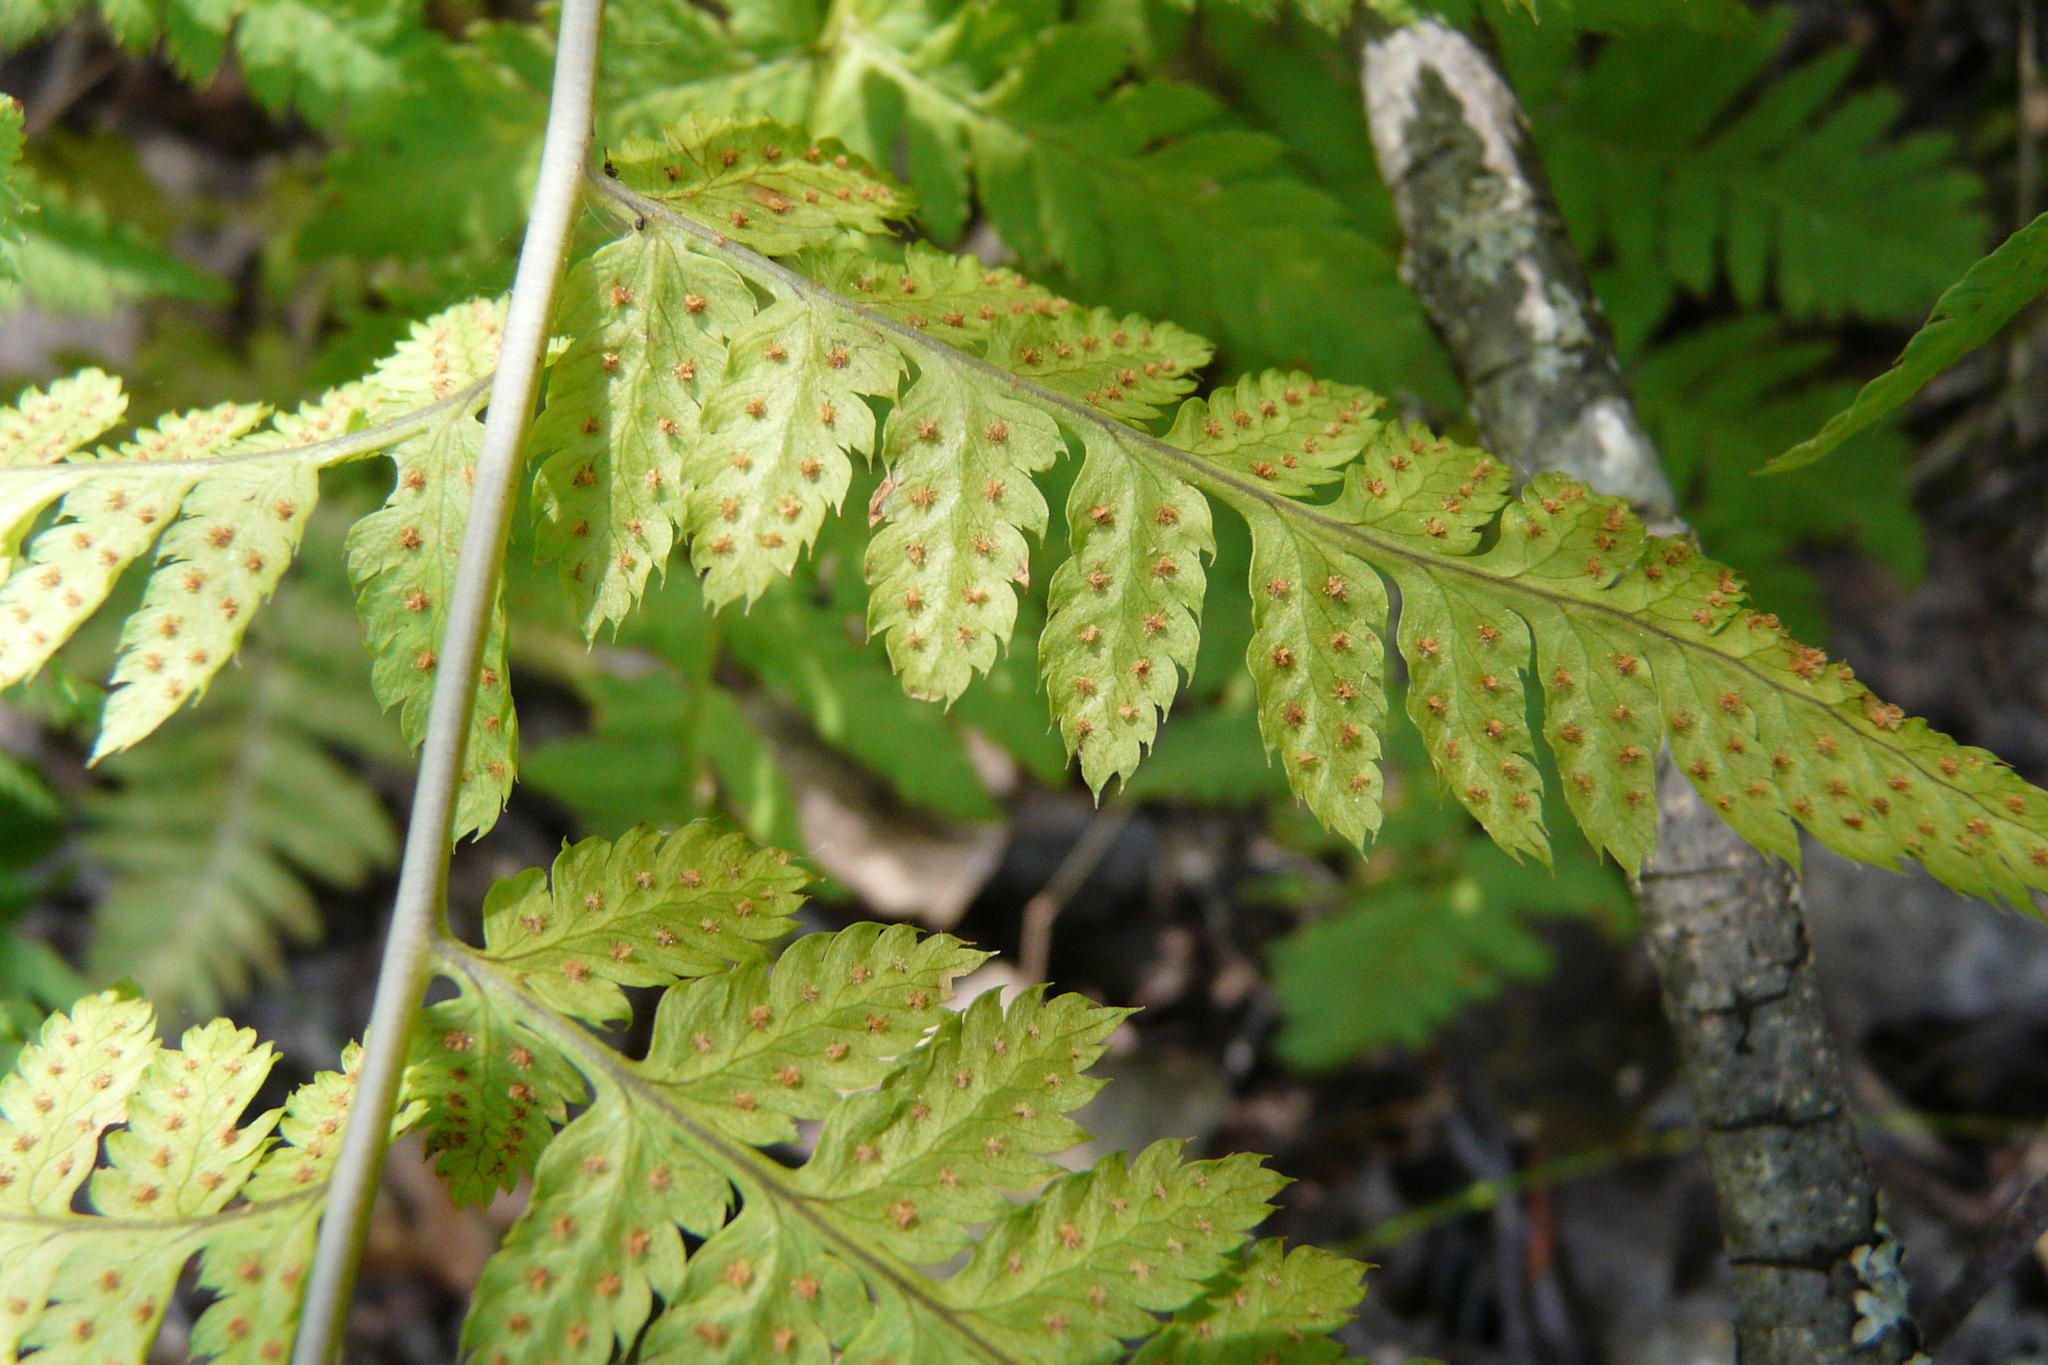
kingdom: Plantae
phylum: Tracheophyta
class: Polypodiopsida
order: Polypodiales
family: Dryopteridaceae
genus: Dryopteris
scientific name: Dryopteris carthusiana
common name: Narrow buckler-fern
